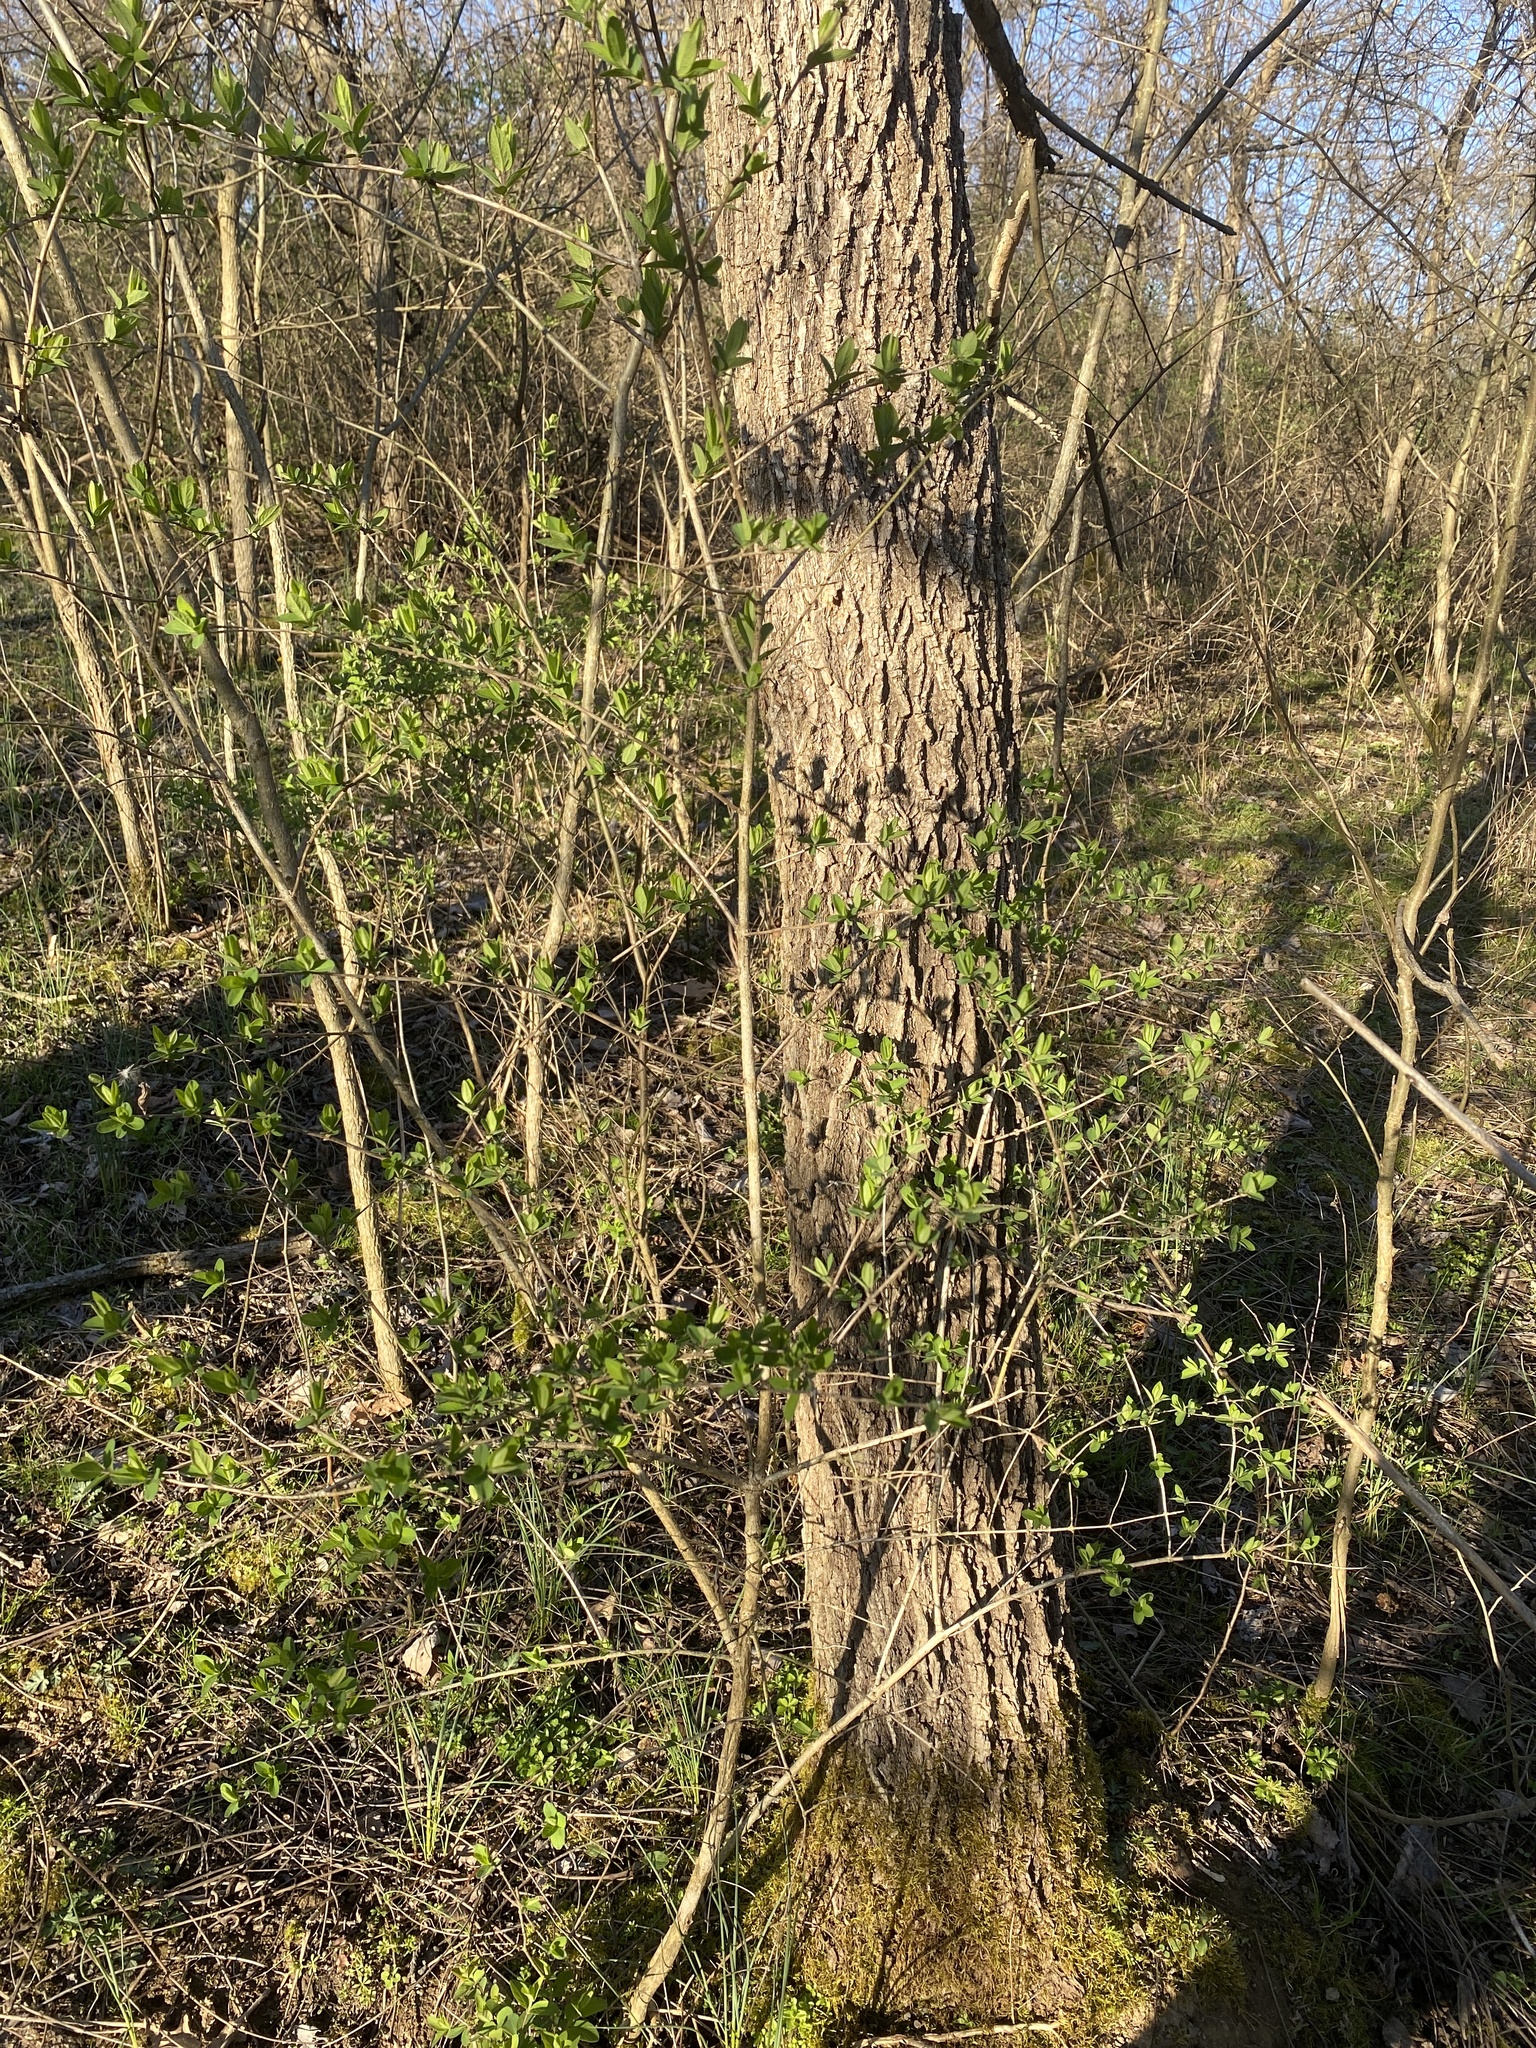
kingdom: Plantae
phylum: Tracheophyta
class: Magnoliopsida
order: Lamiales
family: Oleaceae
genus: Ligustrum
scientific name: Ligustrum
